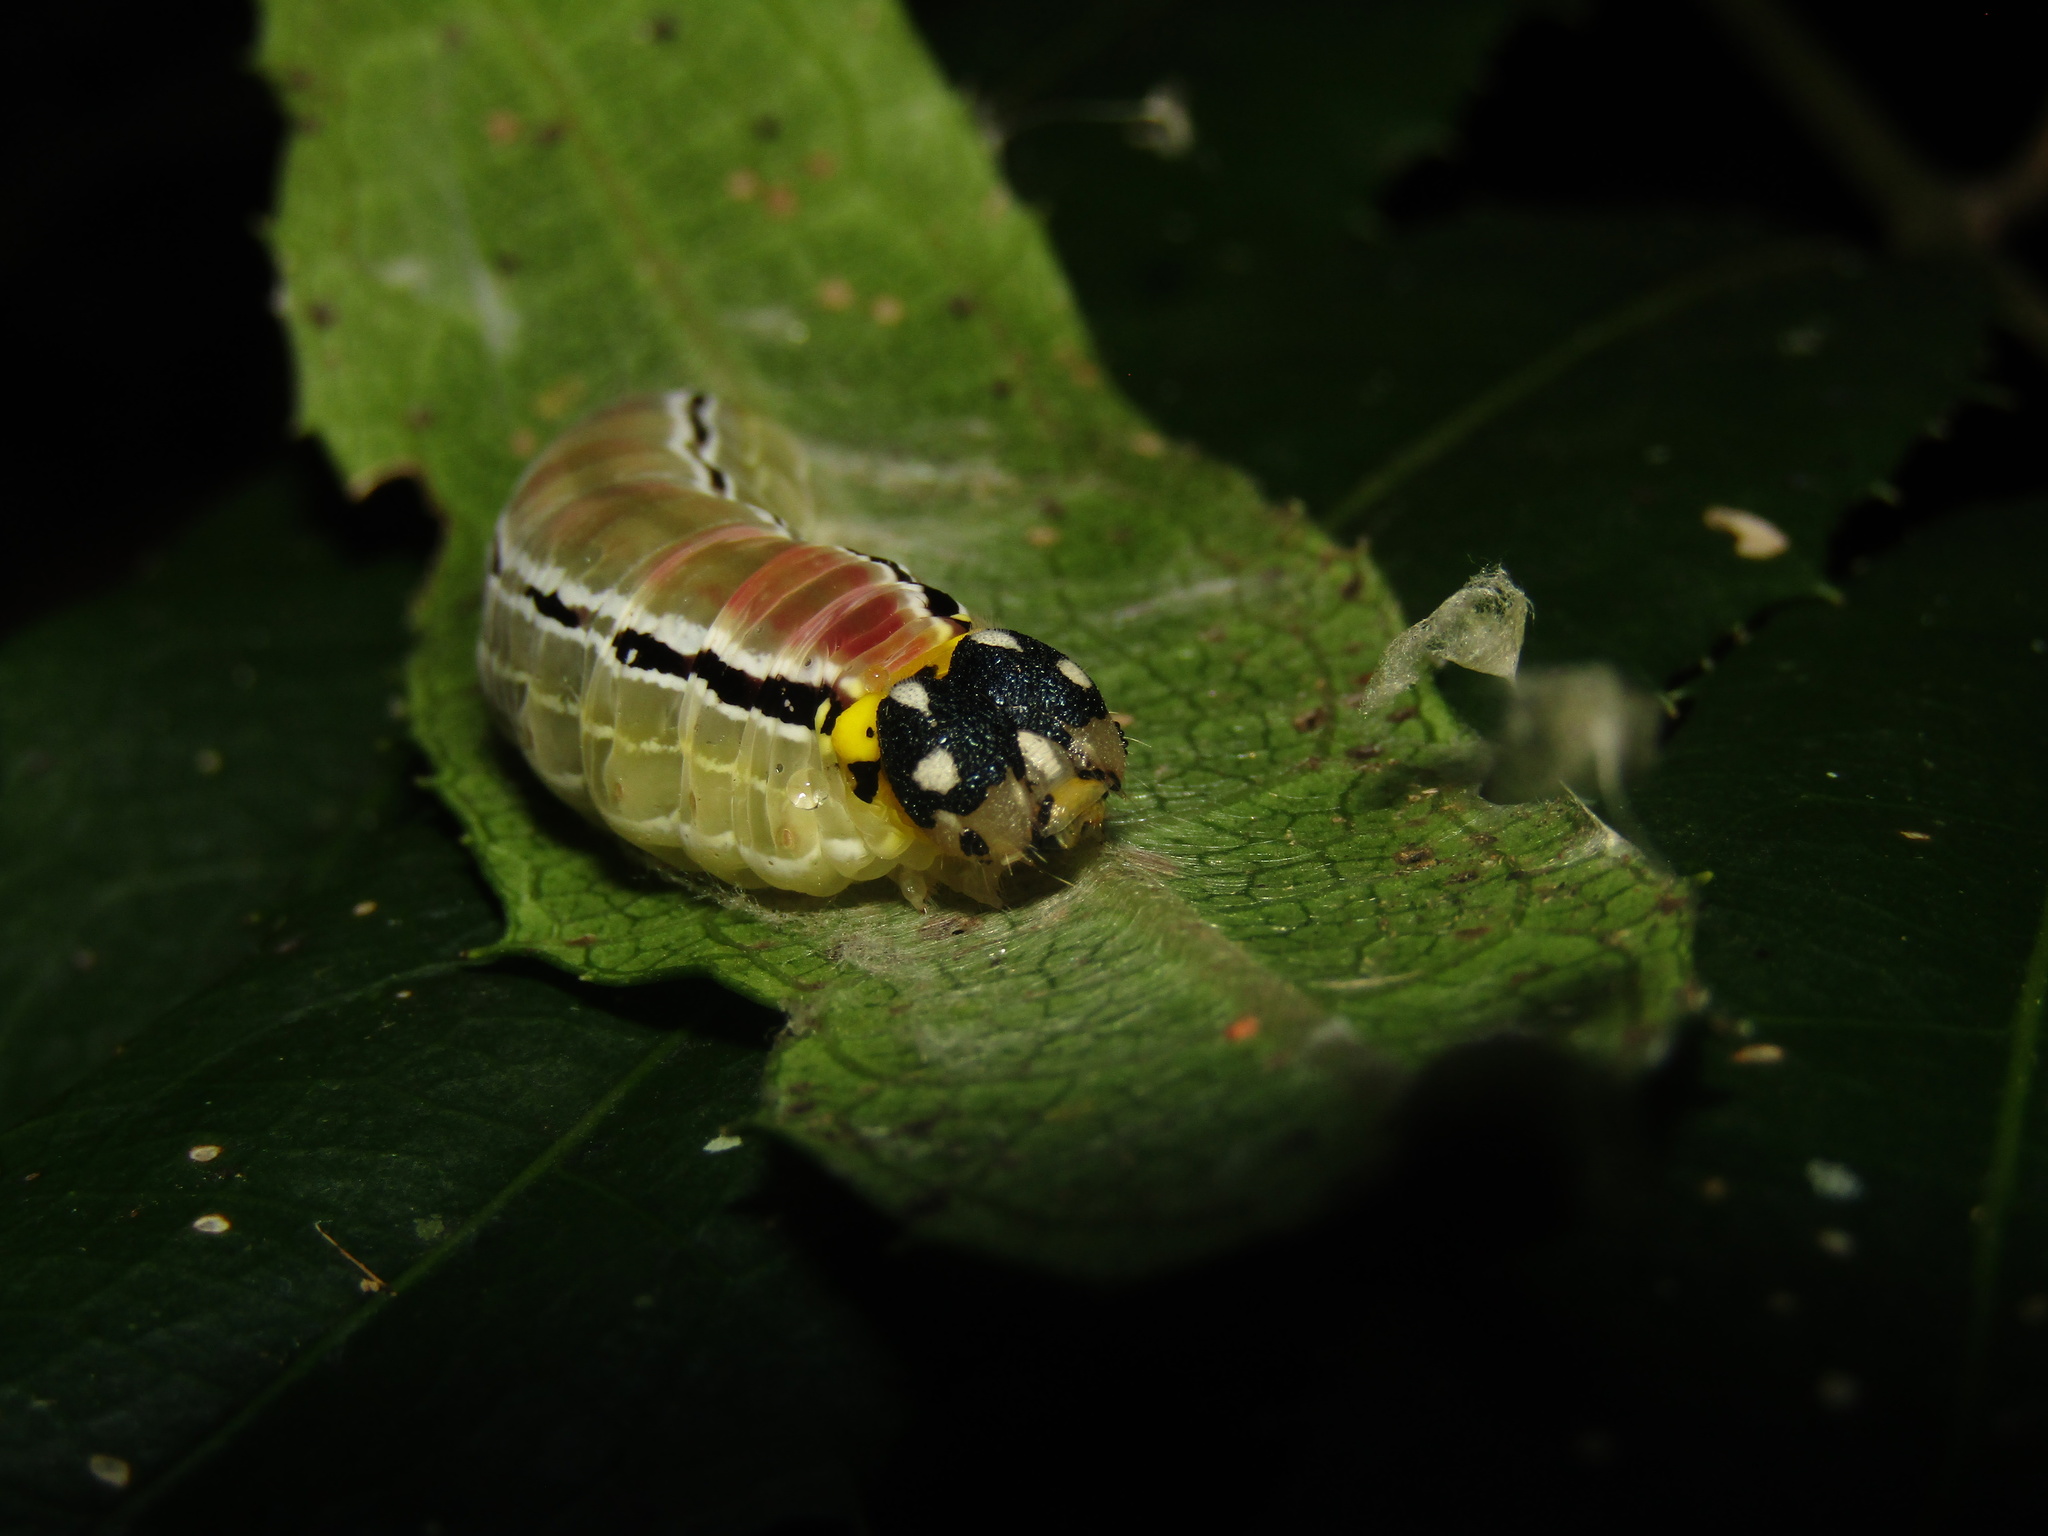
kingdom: Animalia
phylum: Arthropoda
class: Insecta
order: Lepidoptera
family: Hesperiidae
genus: Euschemon
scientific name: Euschemon rafflesia
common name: Regent skipper
